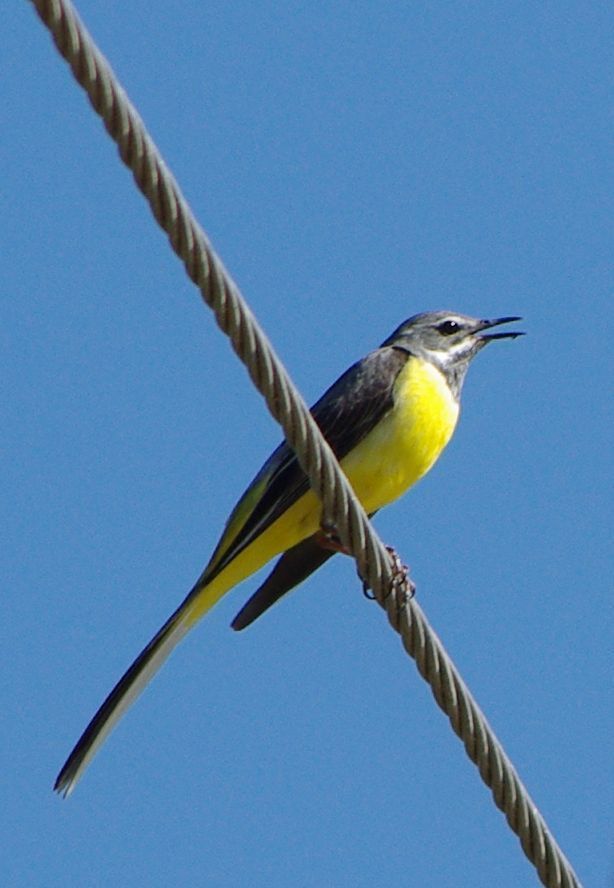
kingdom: Animalia
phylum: Chordata
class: Aves
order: Passeriformes
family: Motacillidae
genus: Motacilla
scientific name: Motacilla cinerea
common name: Grey wagtail
